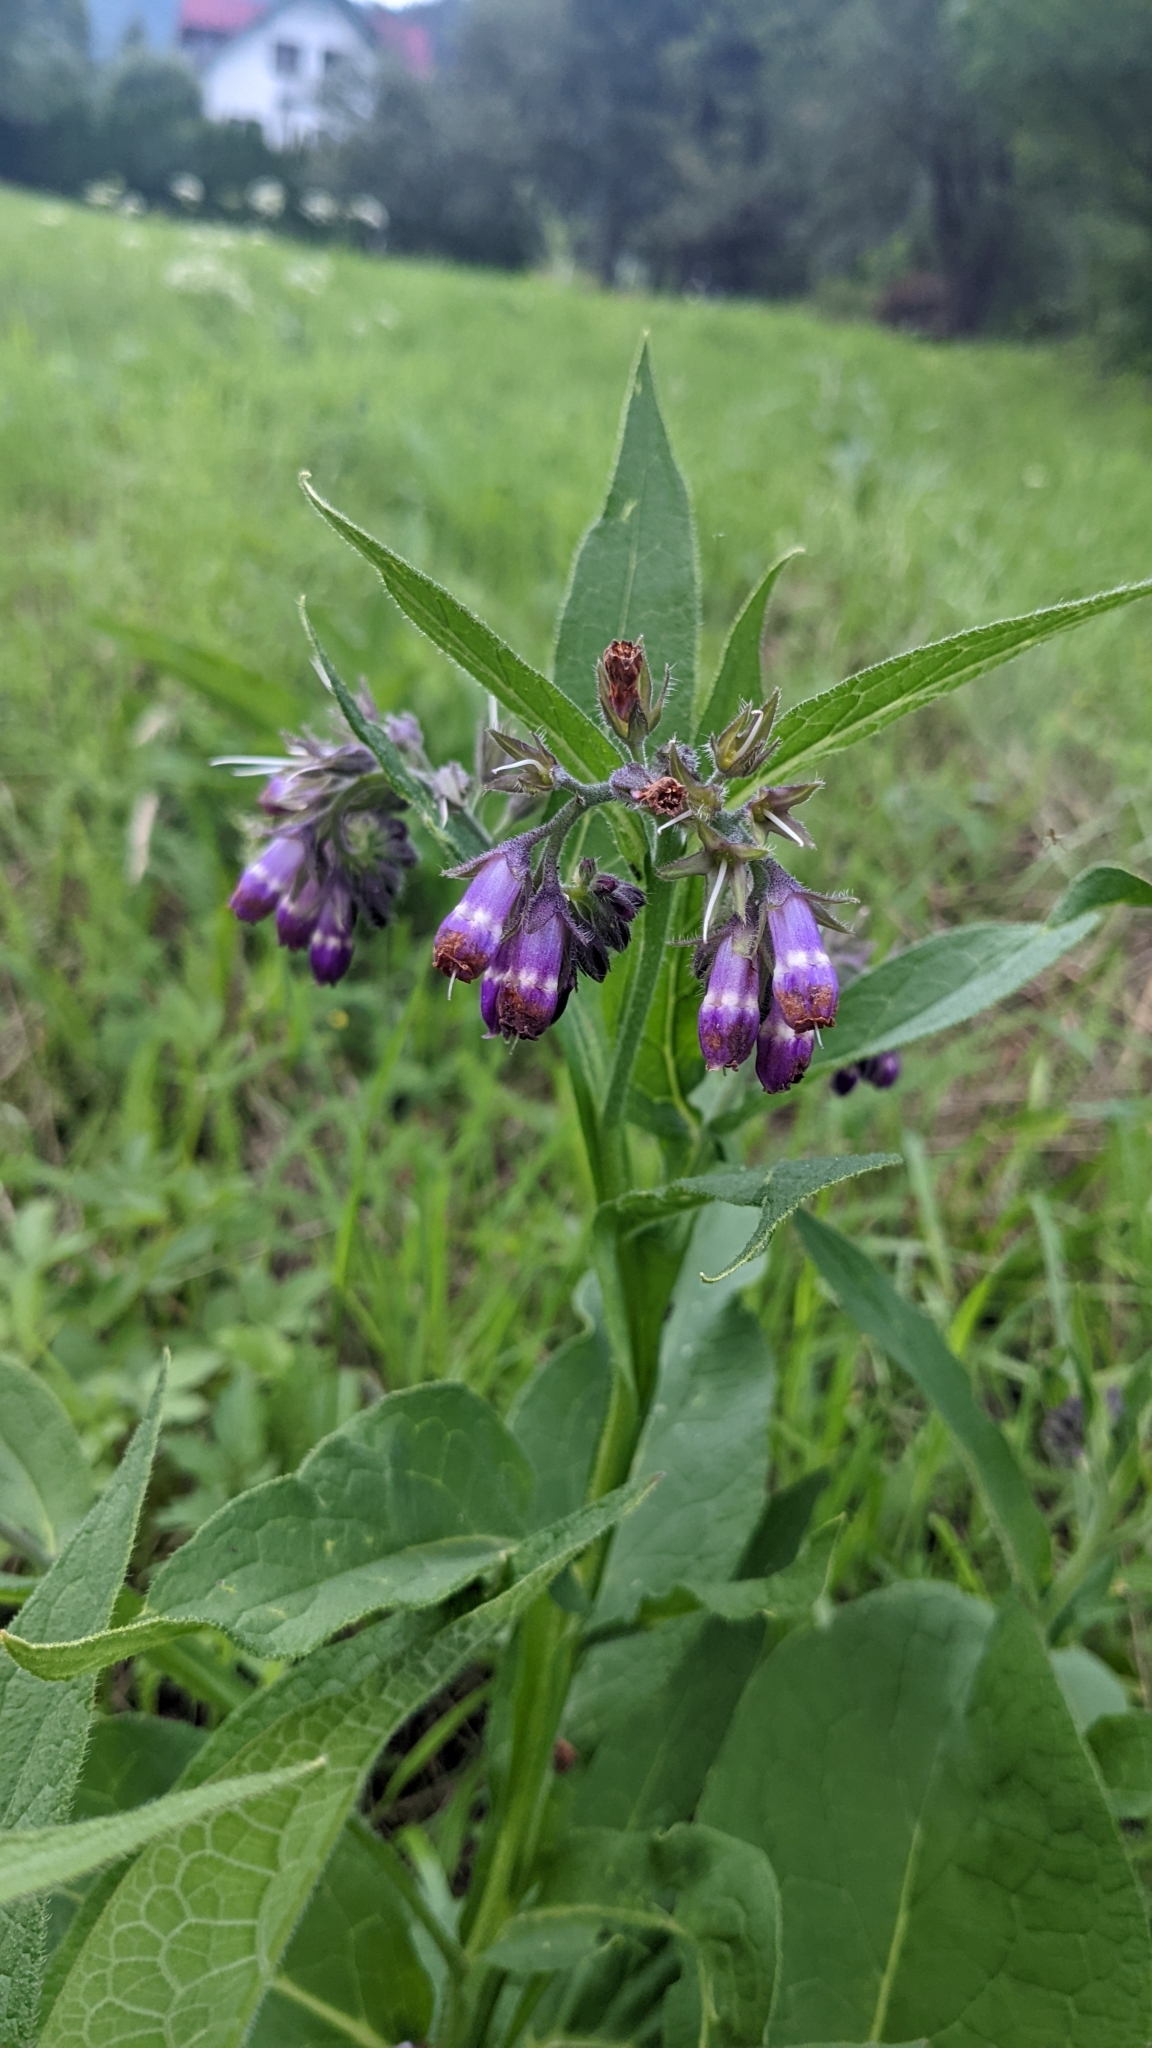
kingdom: Plantae
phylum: Tracheophyta
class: Magnoliopsida
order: Boraginales
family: Boraginaceae
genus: Symphytum
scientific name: Symphytum officinale
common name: Common comfrey
